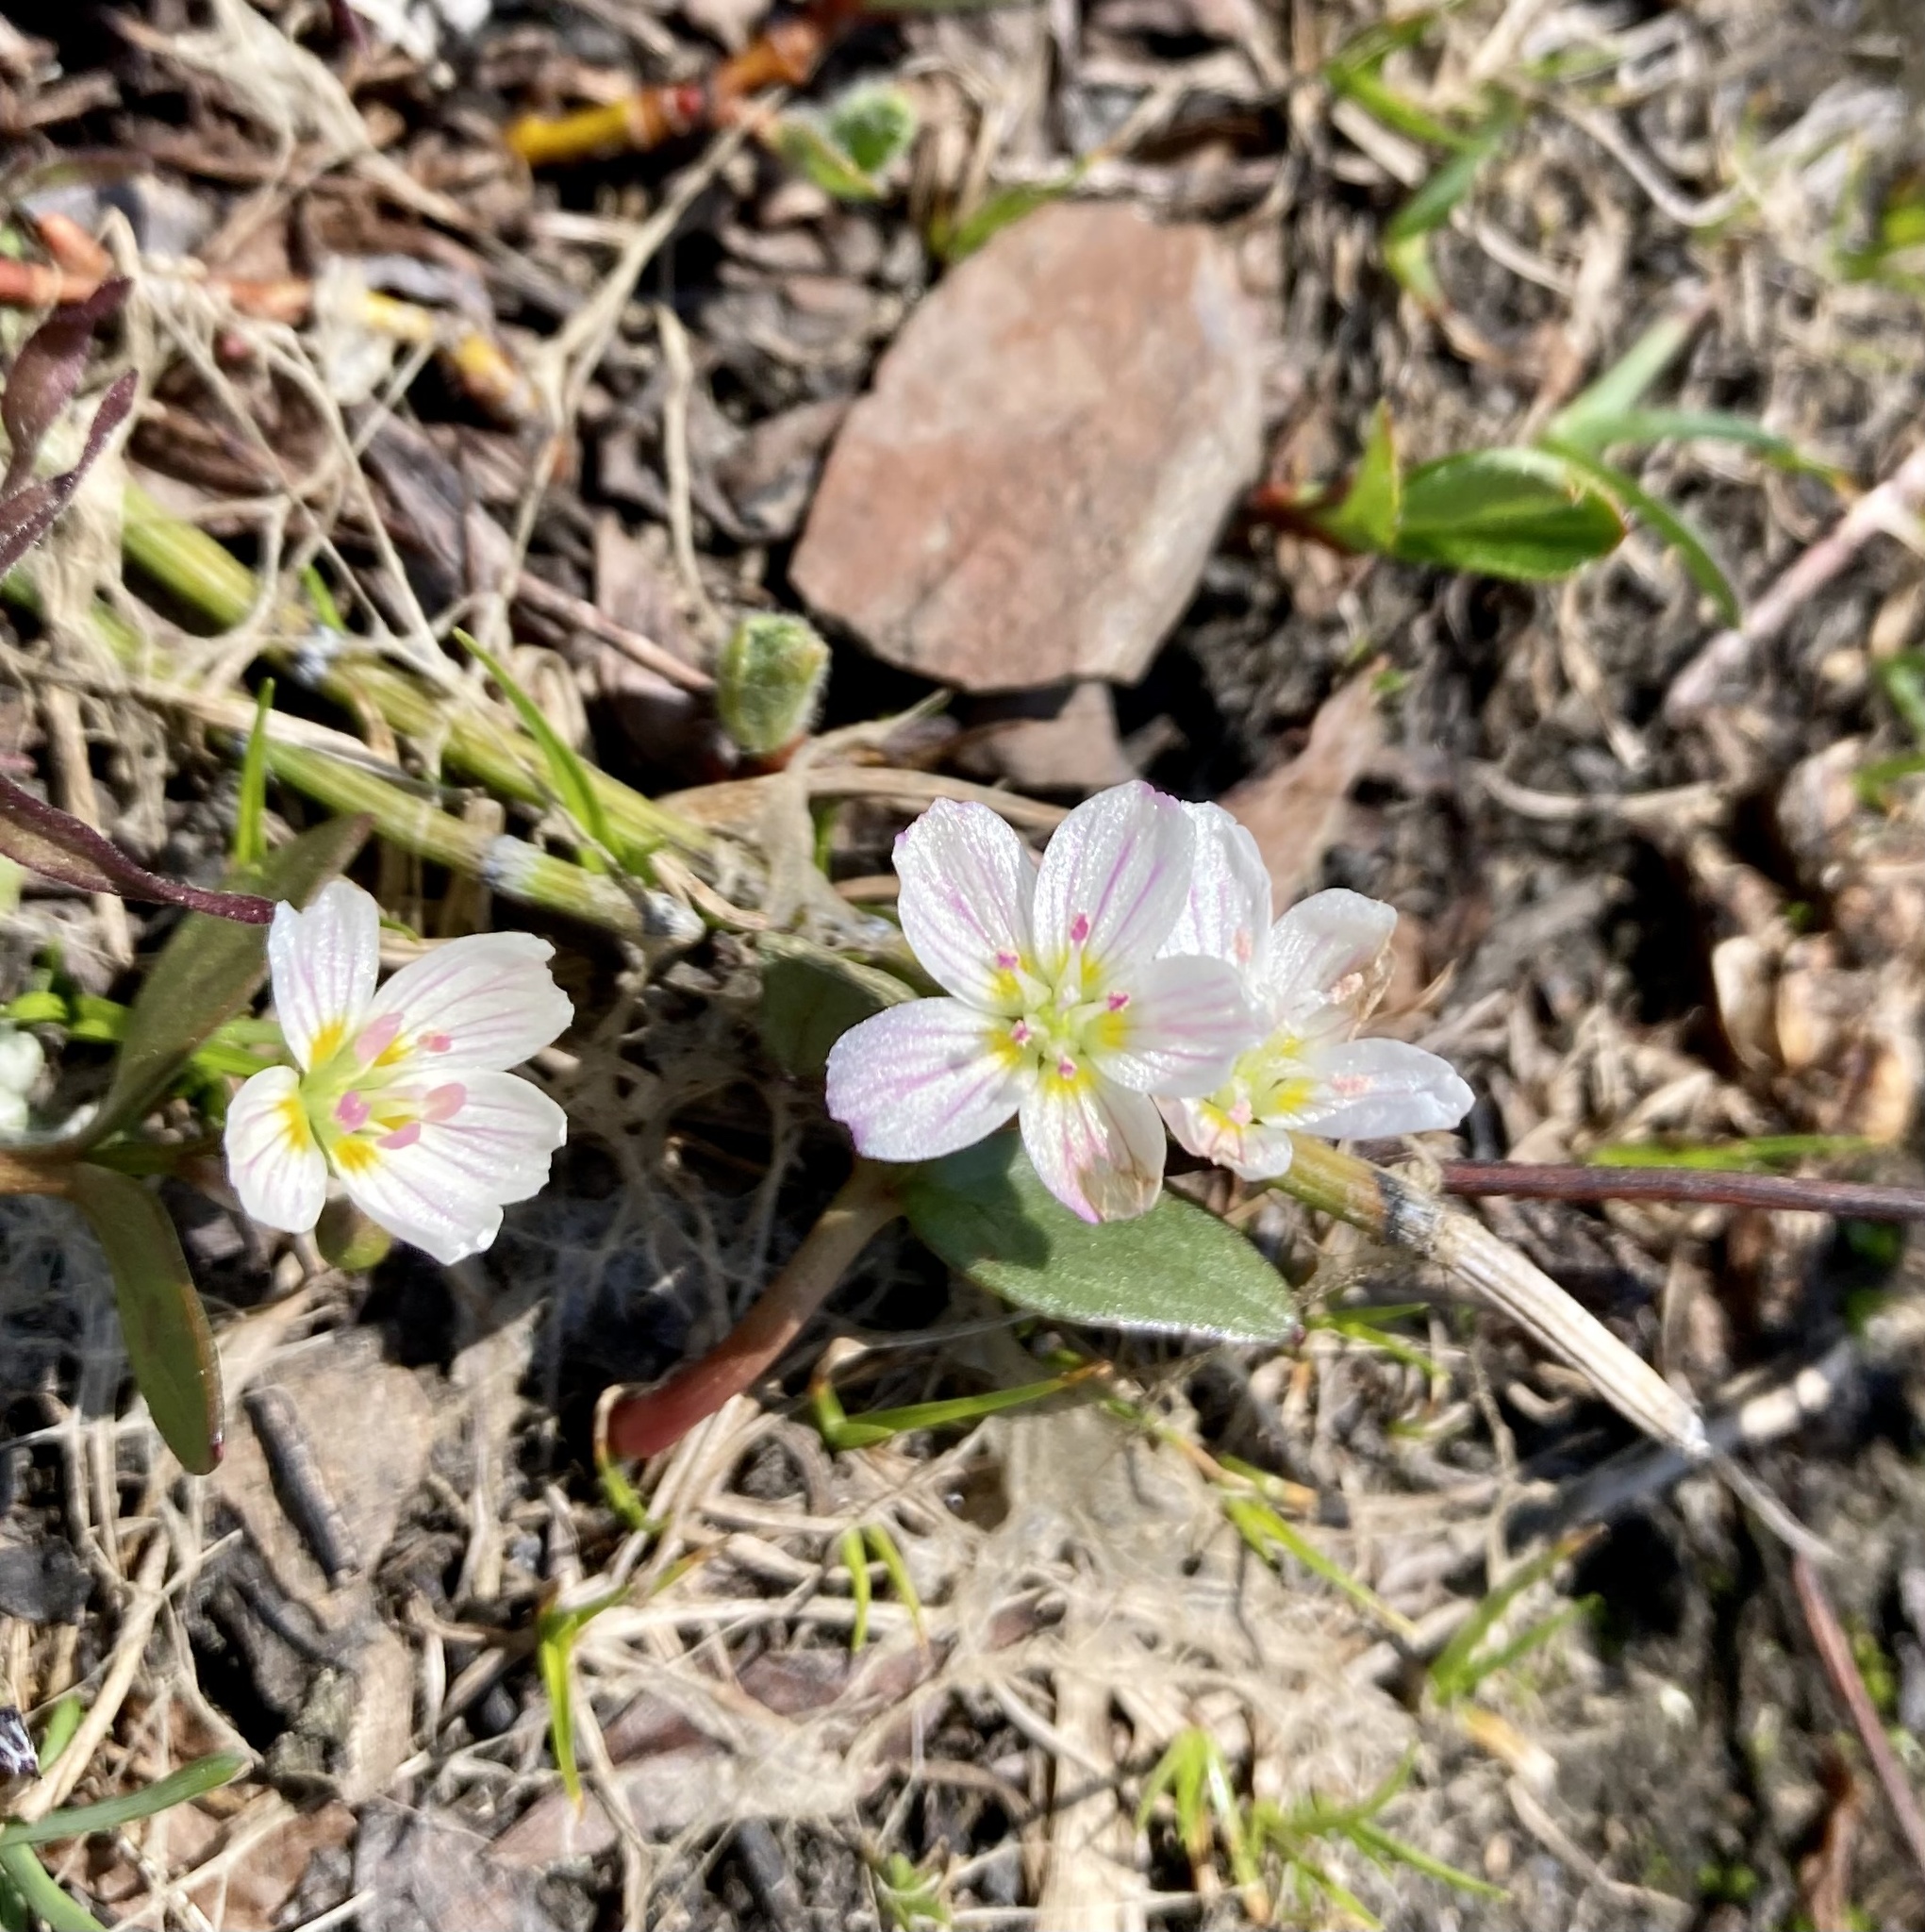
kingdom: Plantae
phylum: Tracheophyta
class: Magnoliopsida
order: Caryophyllales
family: Montiaceae
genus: Claytonia
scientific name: Claytonia lanceolata
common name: Western spring-beauty
